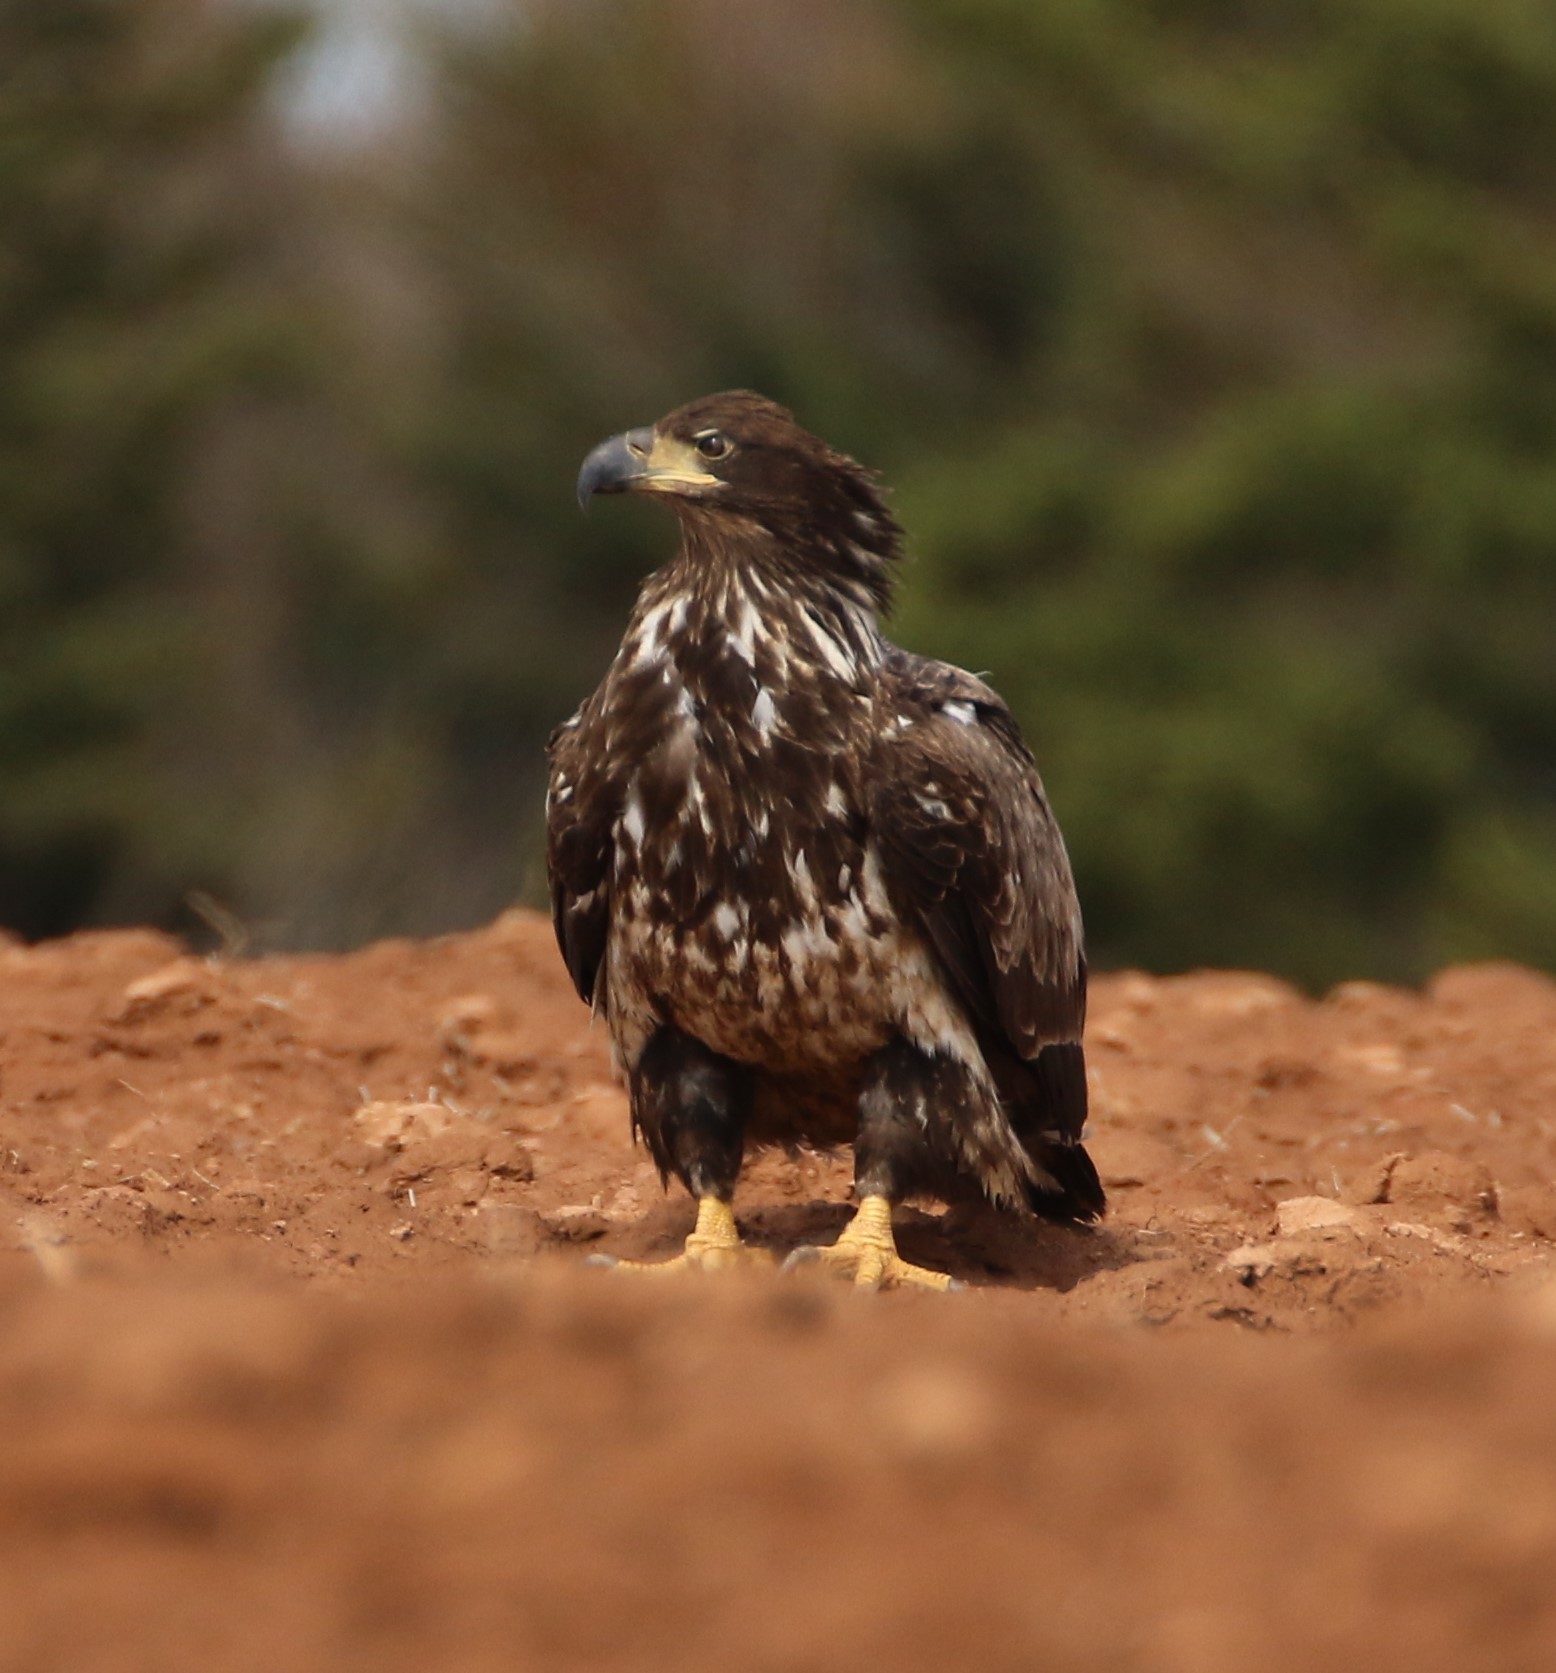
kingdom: Animalia
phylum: Chordata
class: Aves
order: Accipitriformes
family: Accipitridae
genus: Haliaeetus
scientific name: Haliaeetus leucocephalus
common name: Bald eagle
